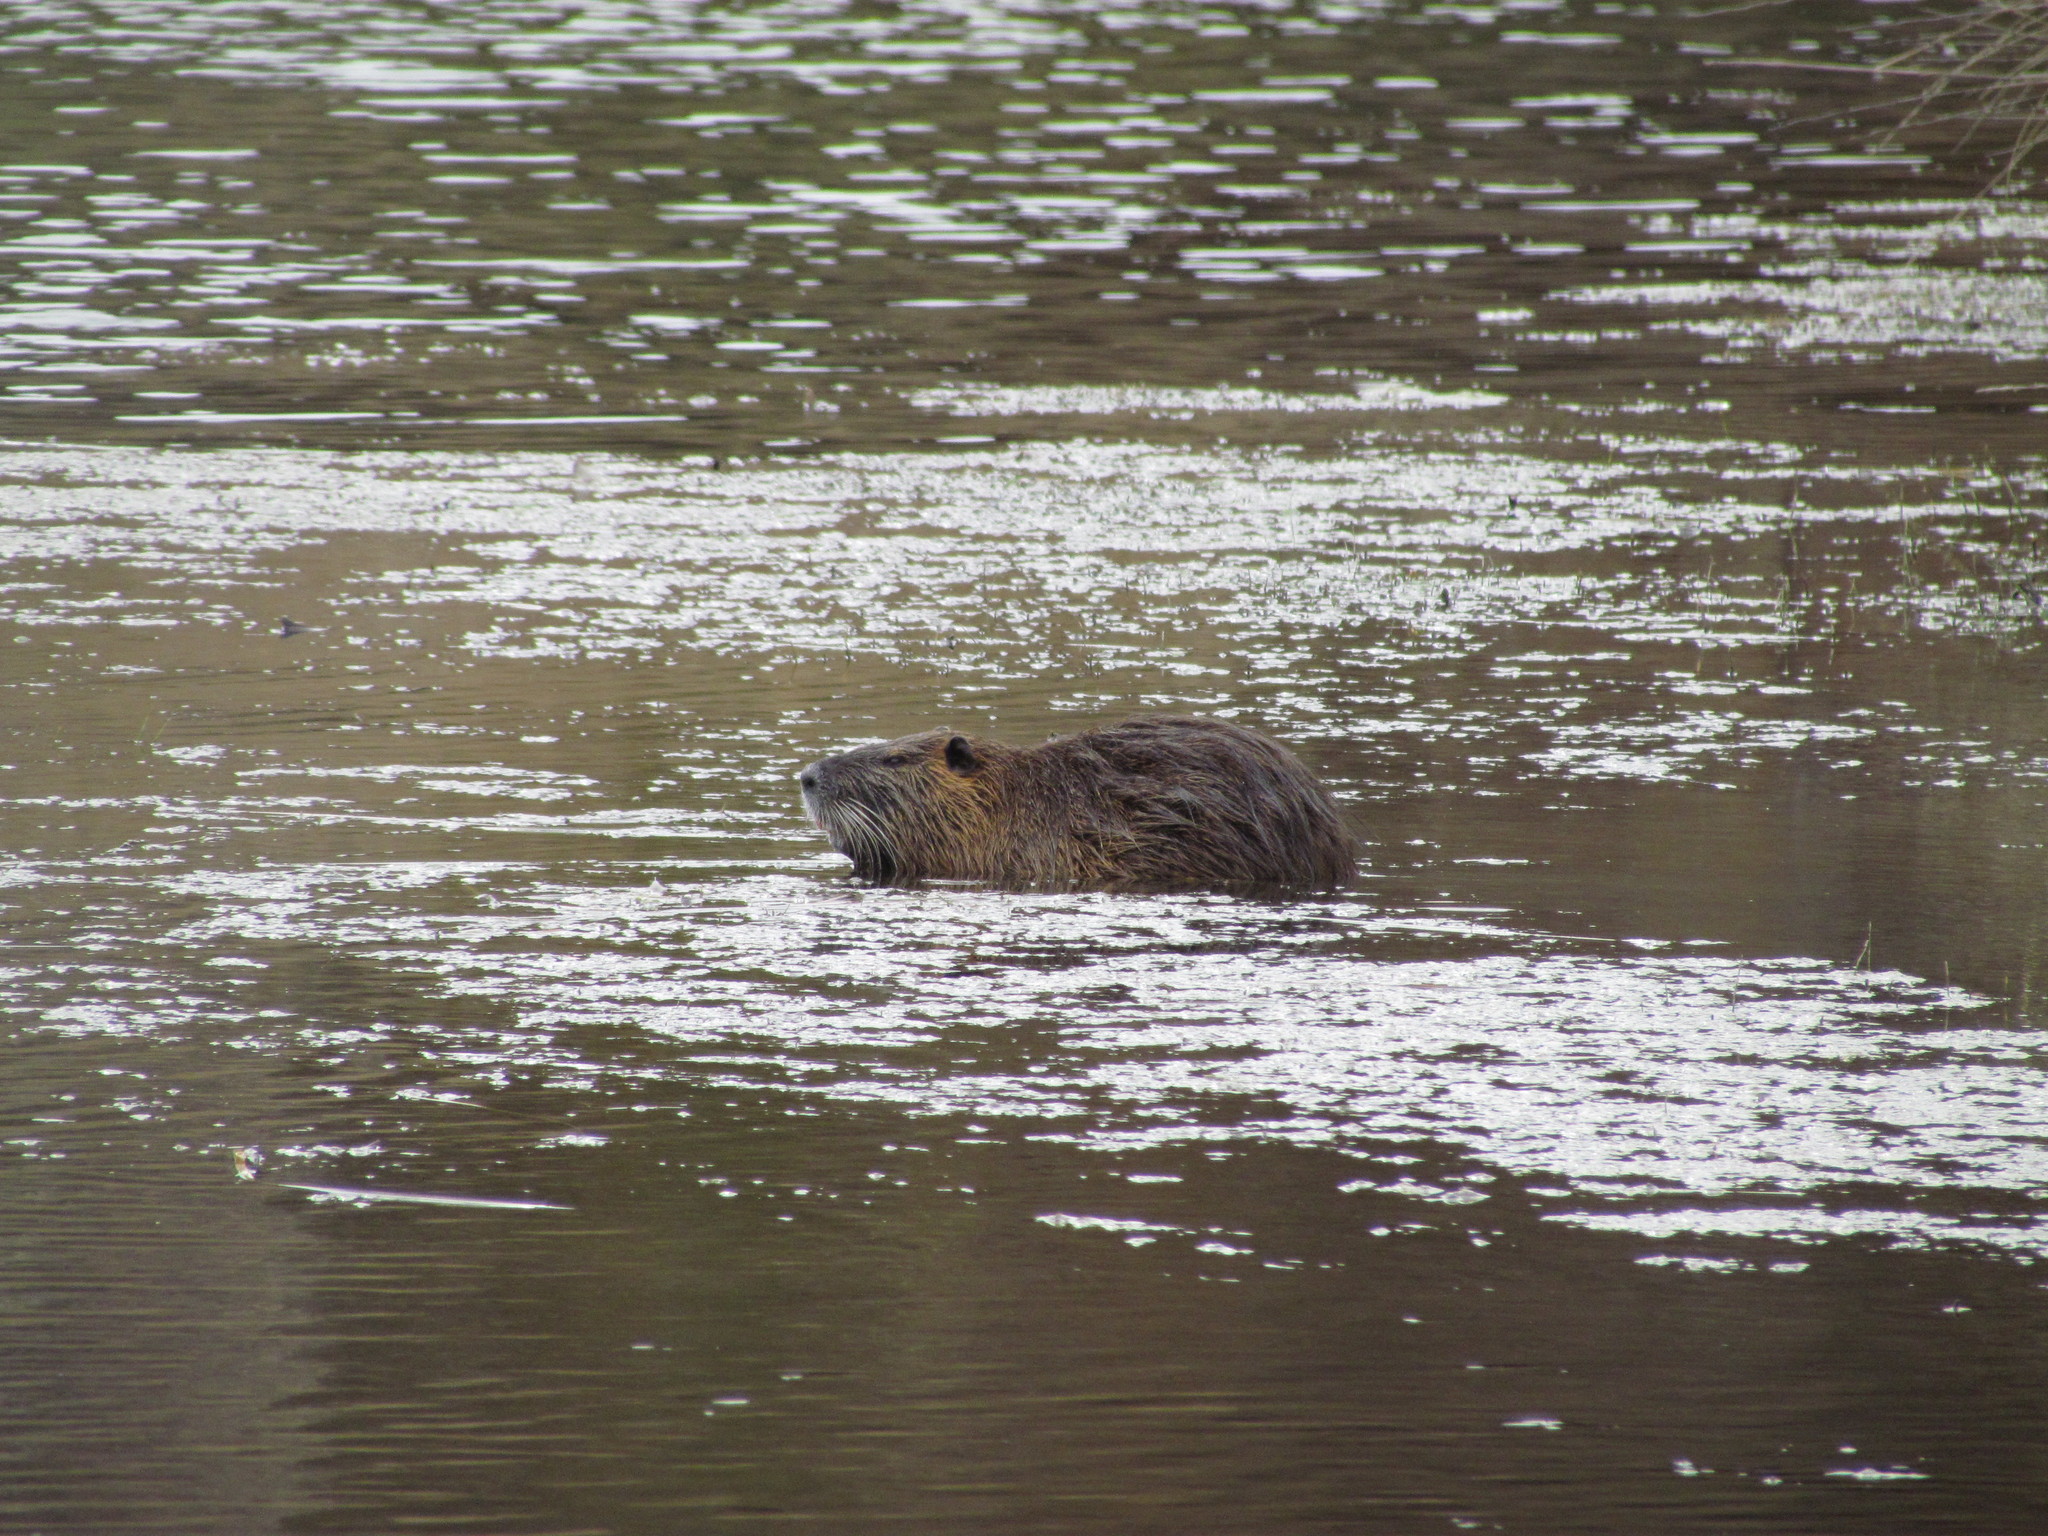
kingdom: Animalia
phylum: Chordata
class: Mammalia
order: Rodentia
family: Myocastoridae
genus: Myocastor
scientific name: Myocastor coypus
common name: Coypu
